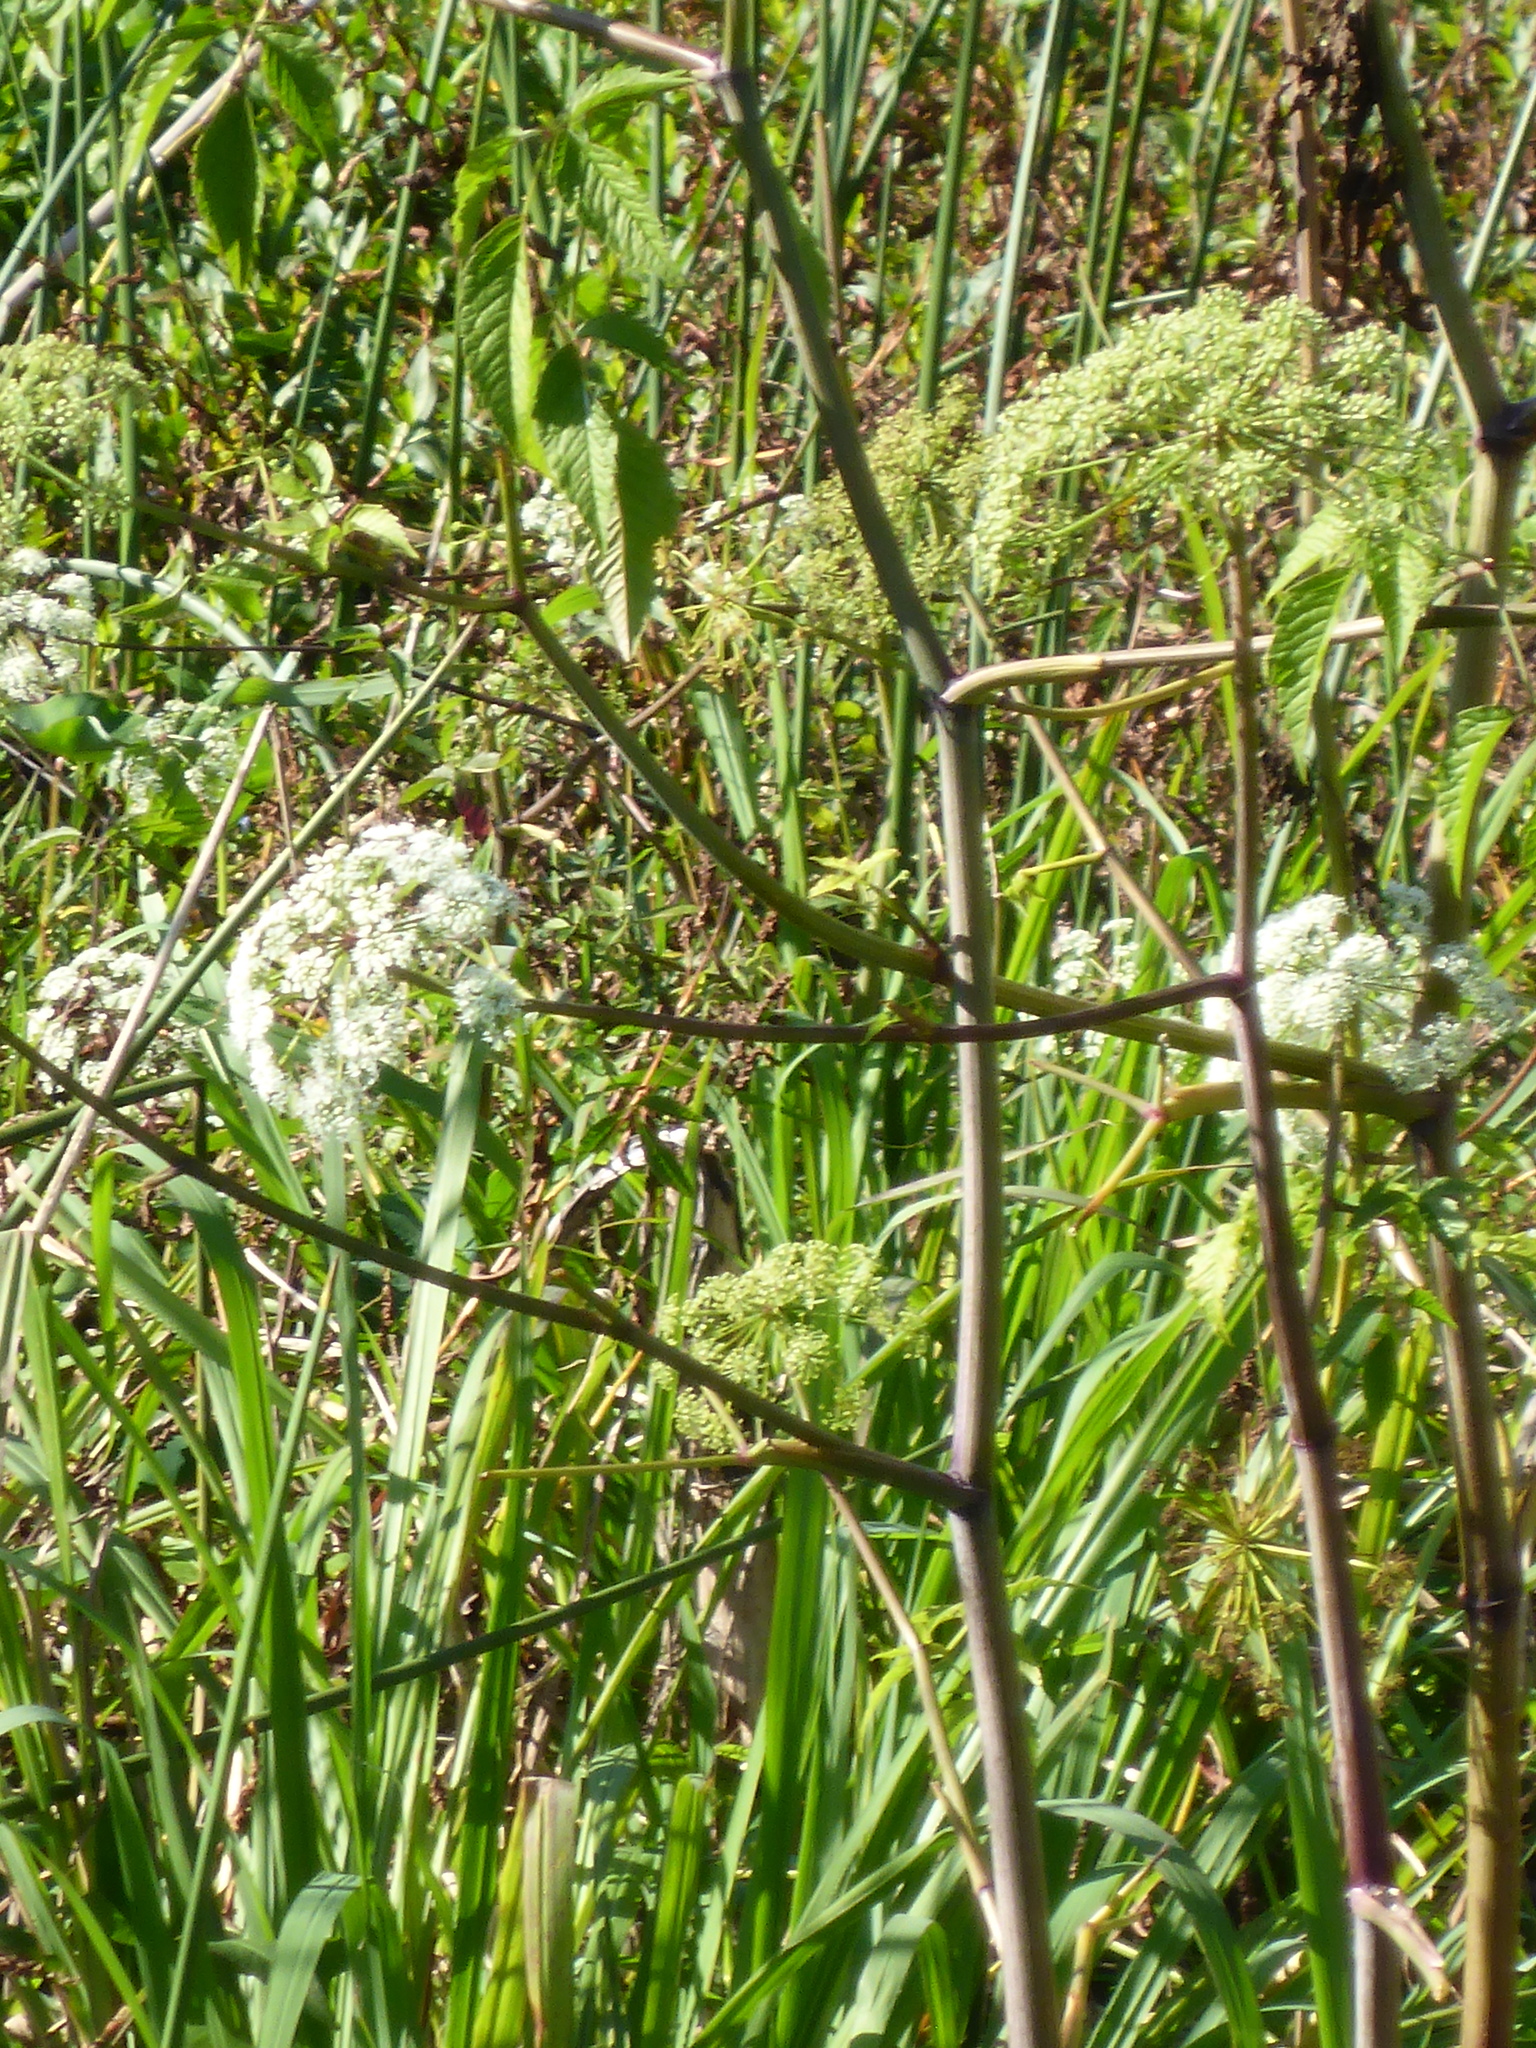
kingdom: Plantae
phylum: Tracheophyta
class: Magnoliopsida
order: Apiales
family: Apiaceae
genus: Cicuta
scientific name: Cicuta maculata
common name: Spotted cowbane
